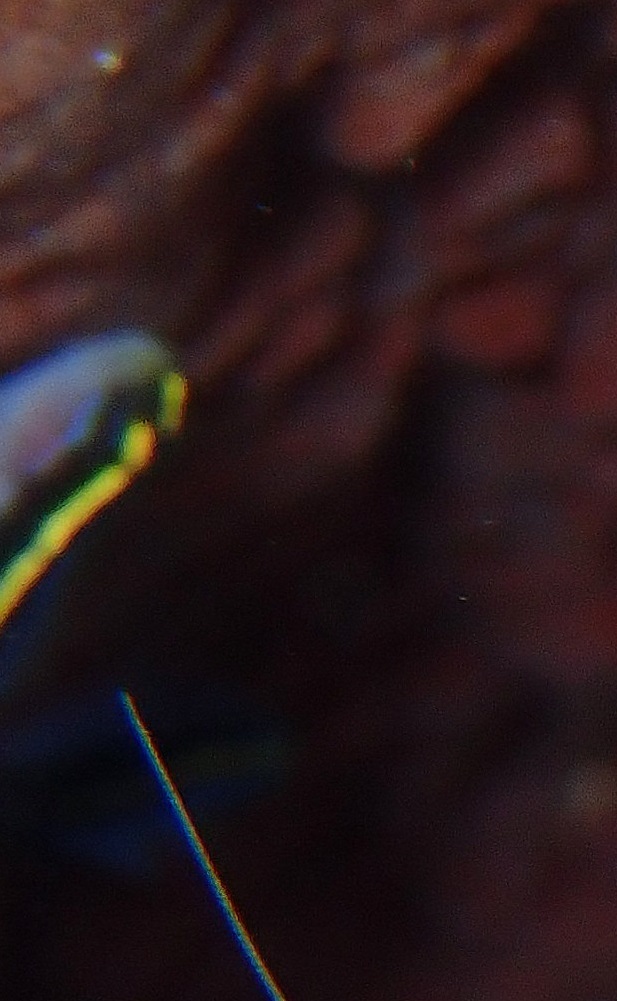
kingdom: Animalia
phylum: Chordata
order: Perciformes
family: Gobiidae
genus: Elacatinus
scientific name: Elacatinus randalli
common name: Yellownose goby
